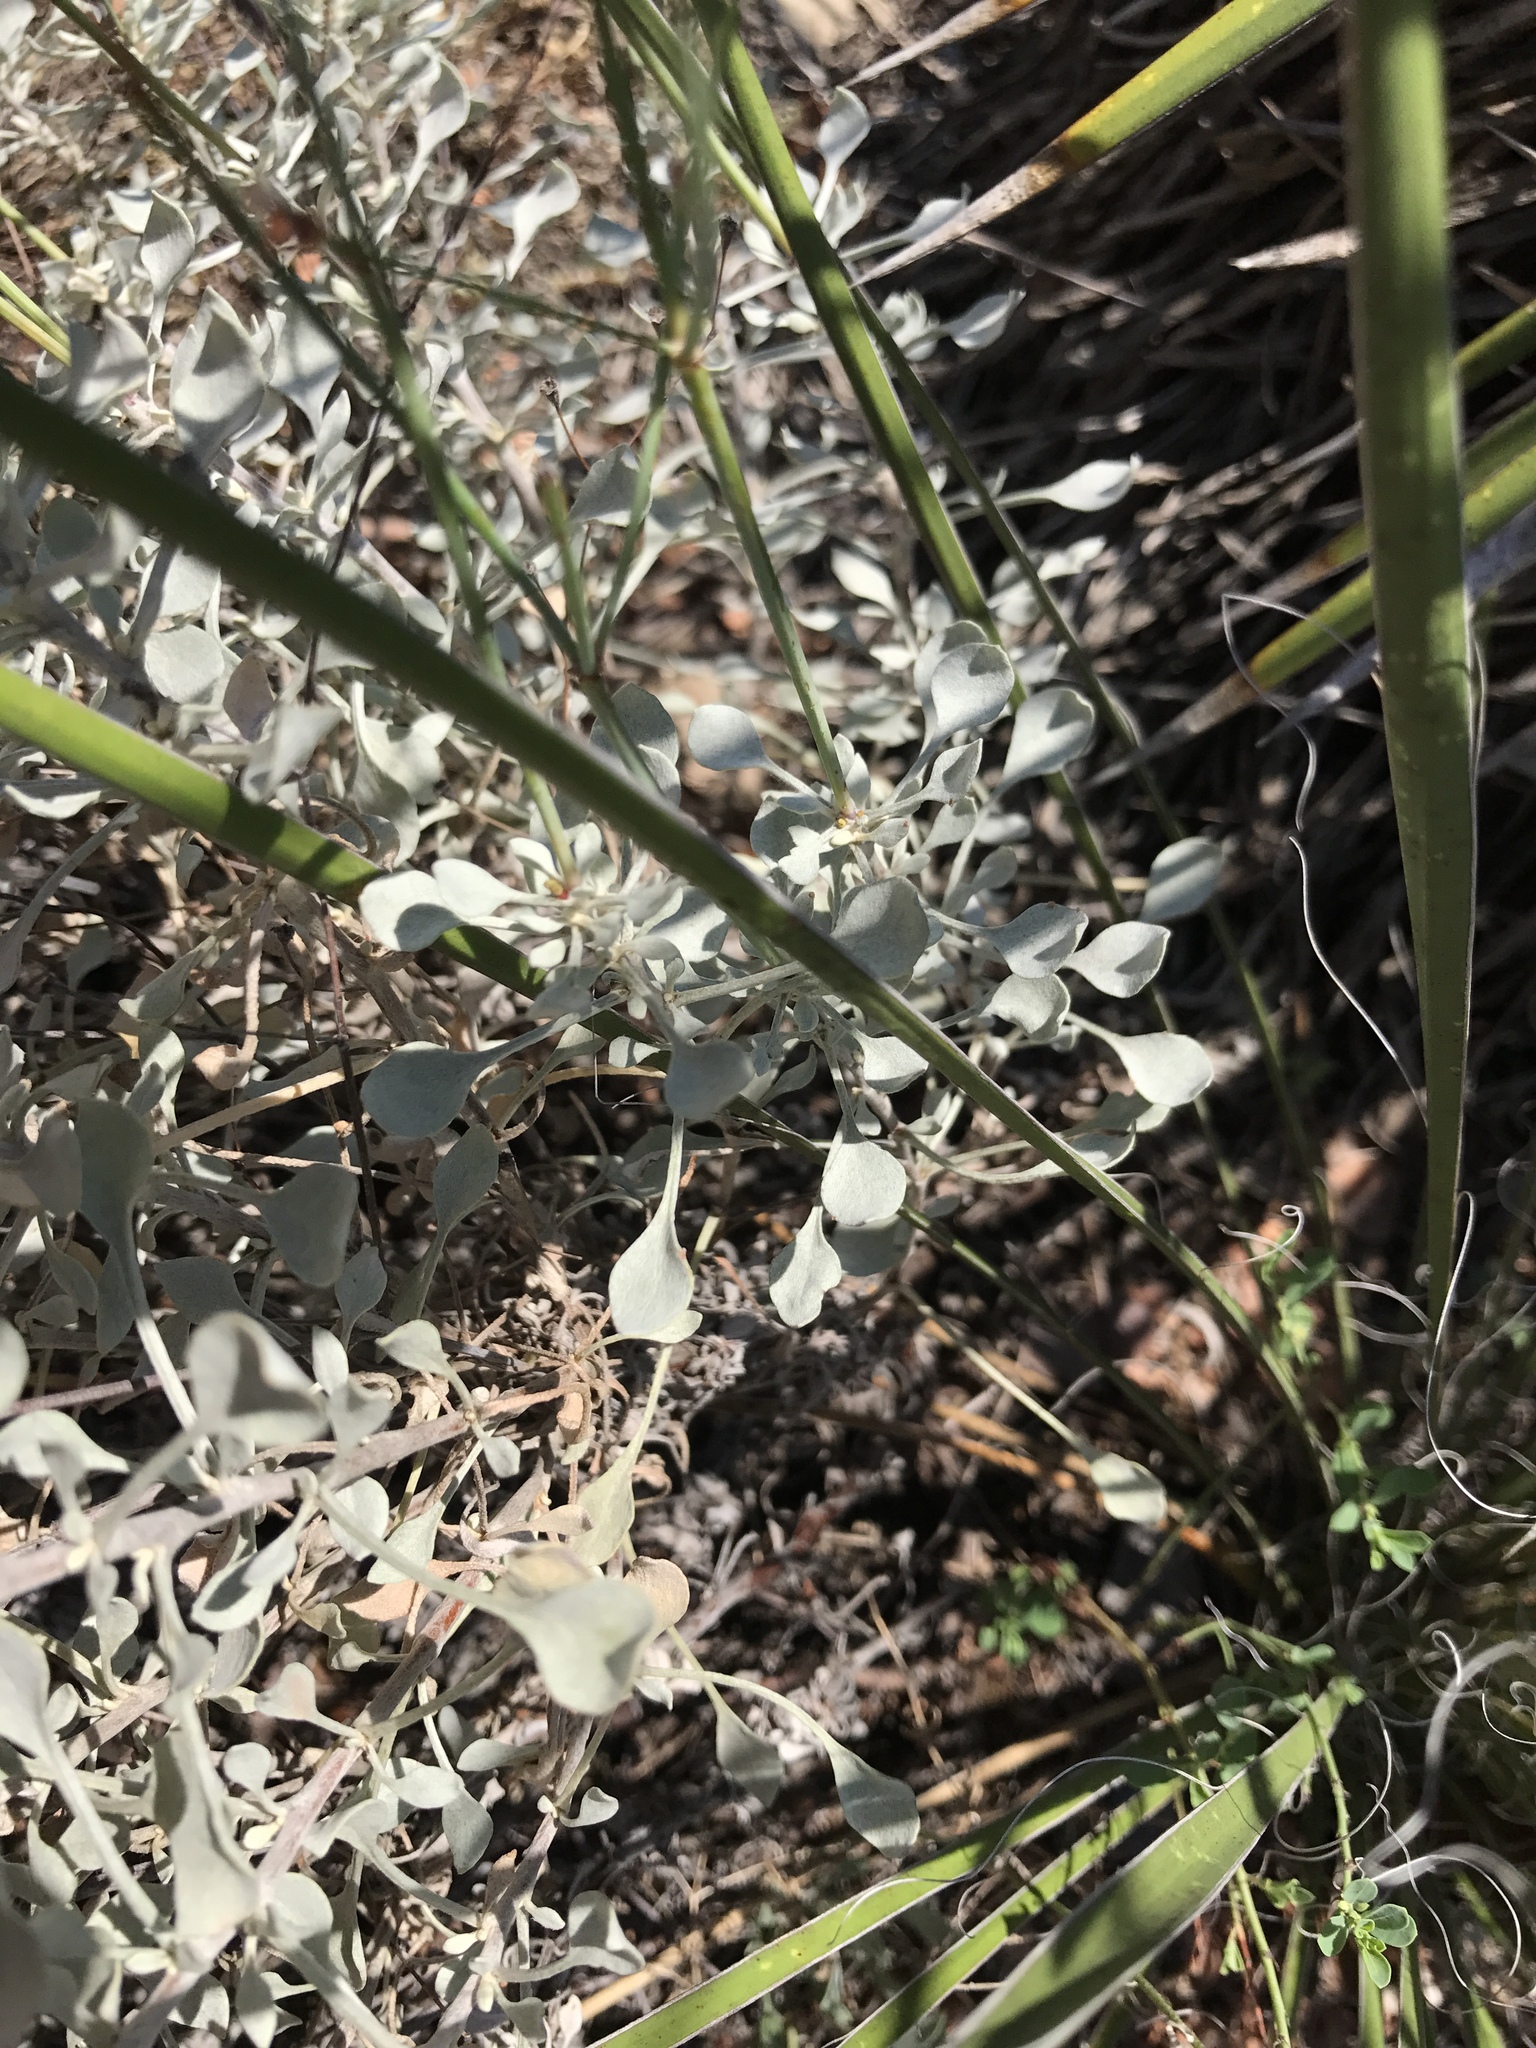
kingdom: Plantae
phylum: Tracheophyta
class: Magnoliopsida
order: Caryophyllales
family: Polygonaceae
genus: Eriogonum
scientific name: Eriogonum graniticum
